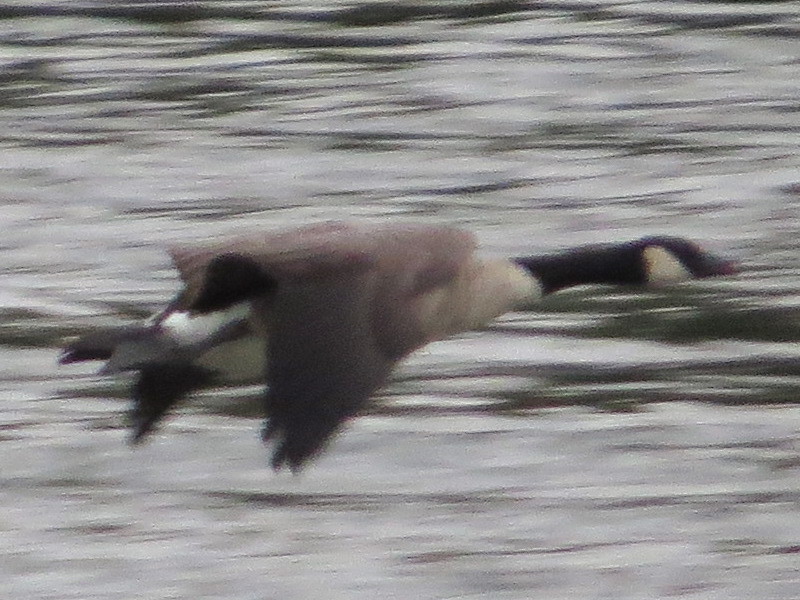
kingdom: Animalia
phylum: Chordata
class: Aves
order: Anseriformes
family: Anatidae
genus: Branta
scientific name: Branta canadensis
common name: Canada goose
